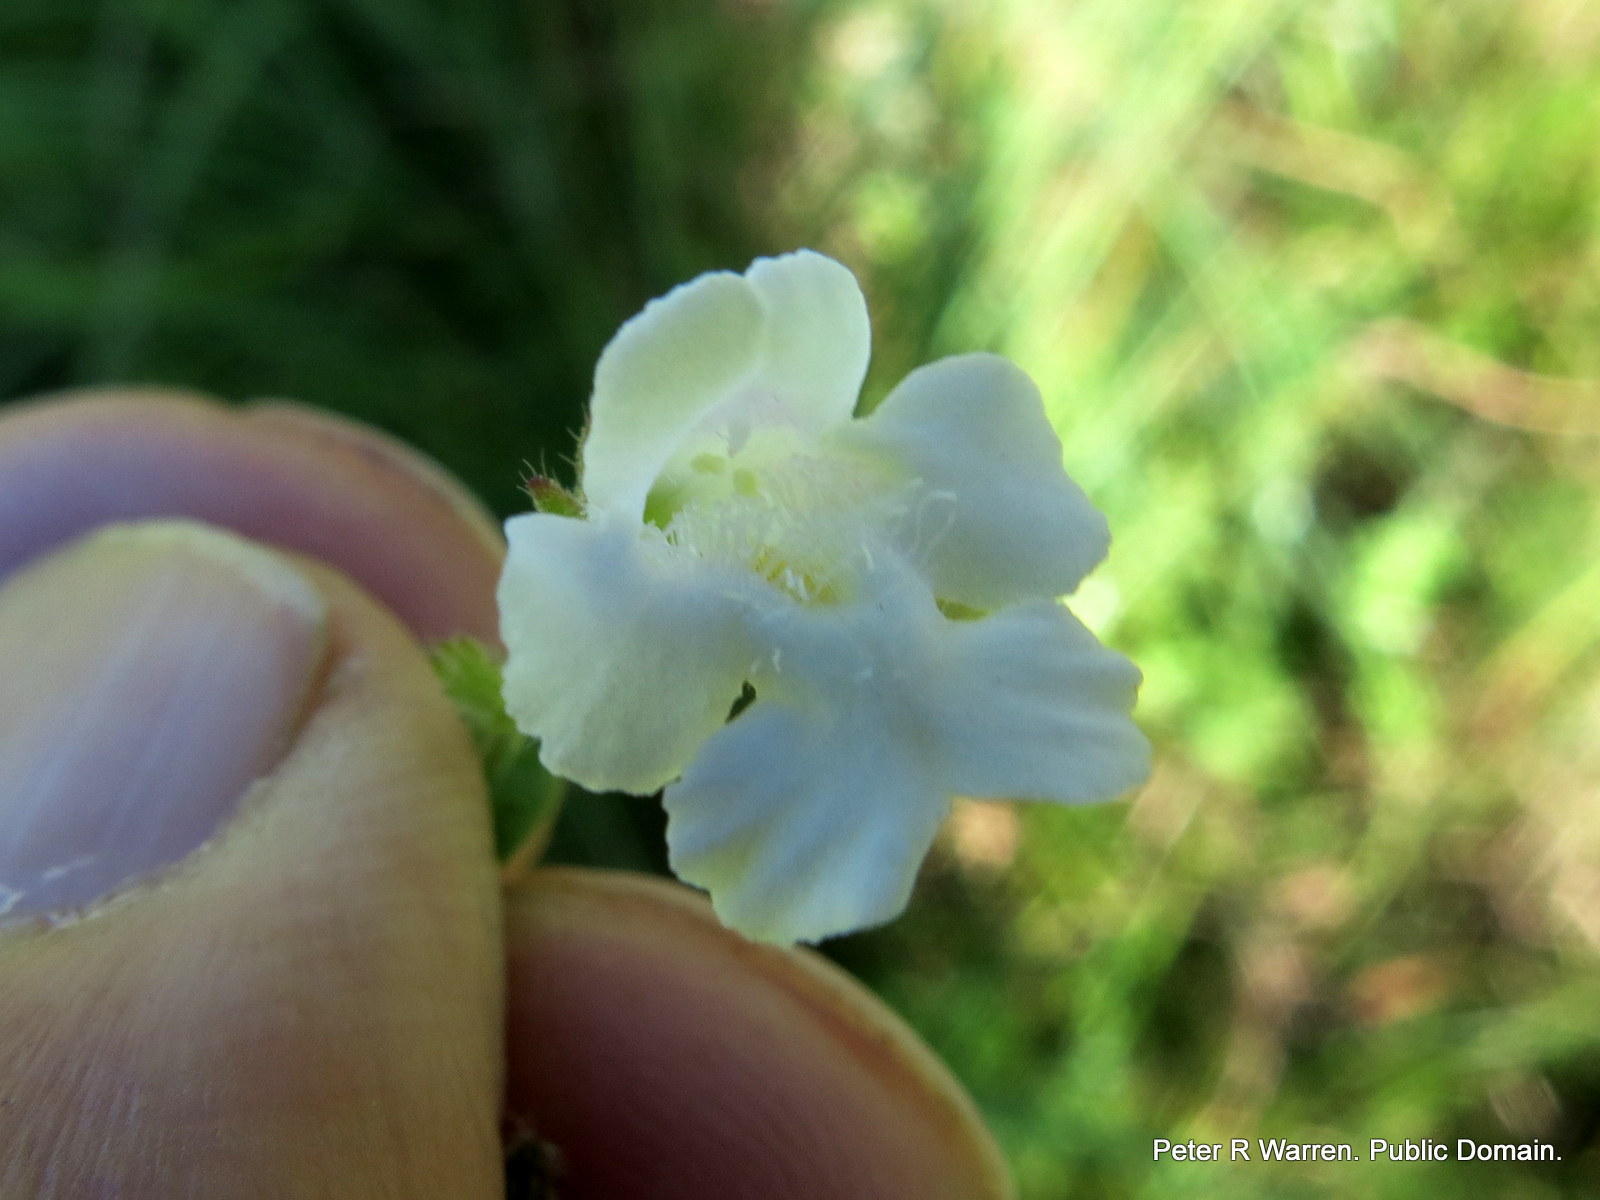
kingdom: Plantae
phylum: Tracheophyta
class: Magnoliopsida
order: Lamiales
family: Lamiaceae
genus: Killickia
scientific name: Killickia pilosa
